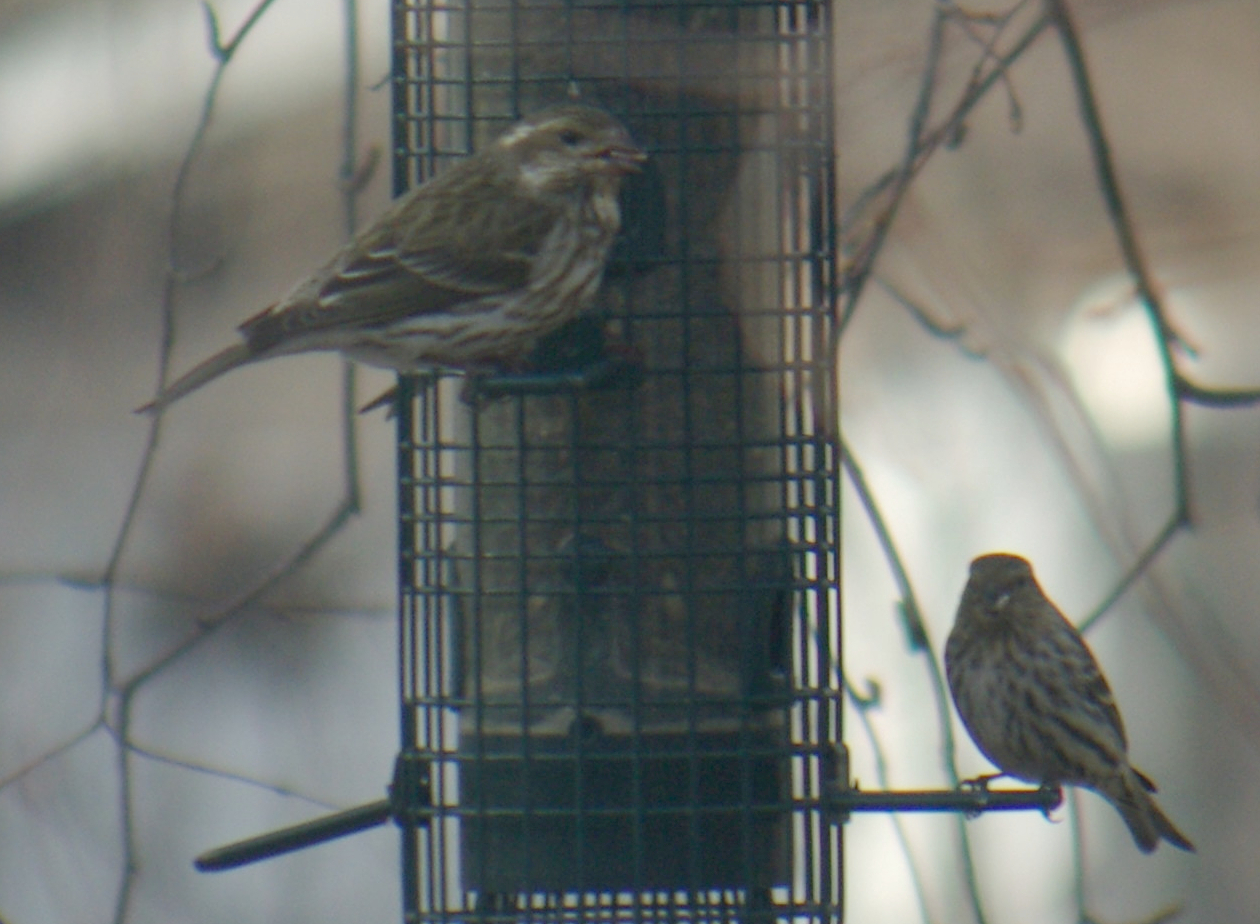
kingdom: Animalia
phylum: Chordata
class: Aves
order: Passeriformes
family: Fringillidae
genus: Spinus
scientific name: Spinus pinus
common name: Pine siskin
